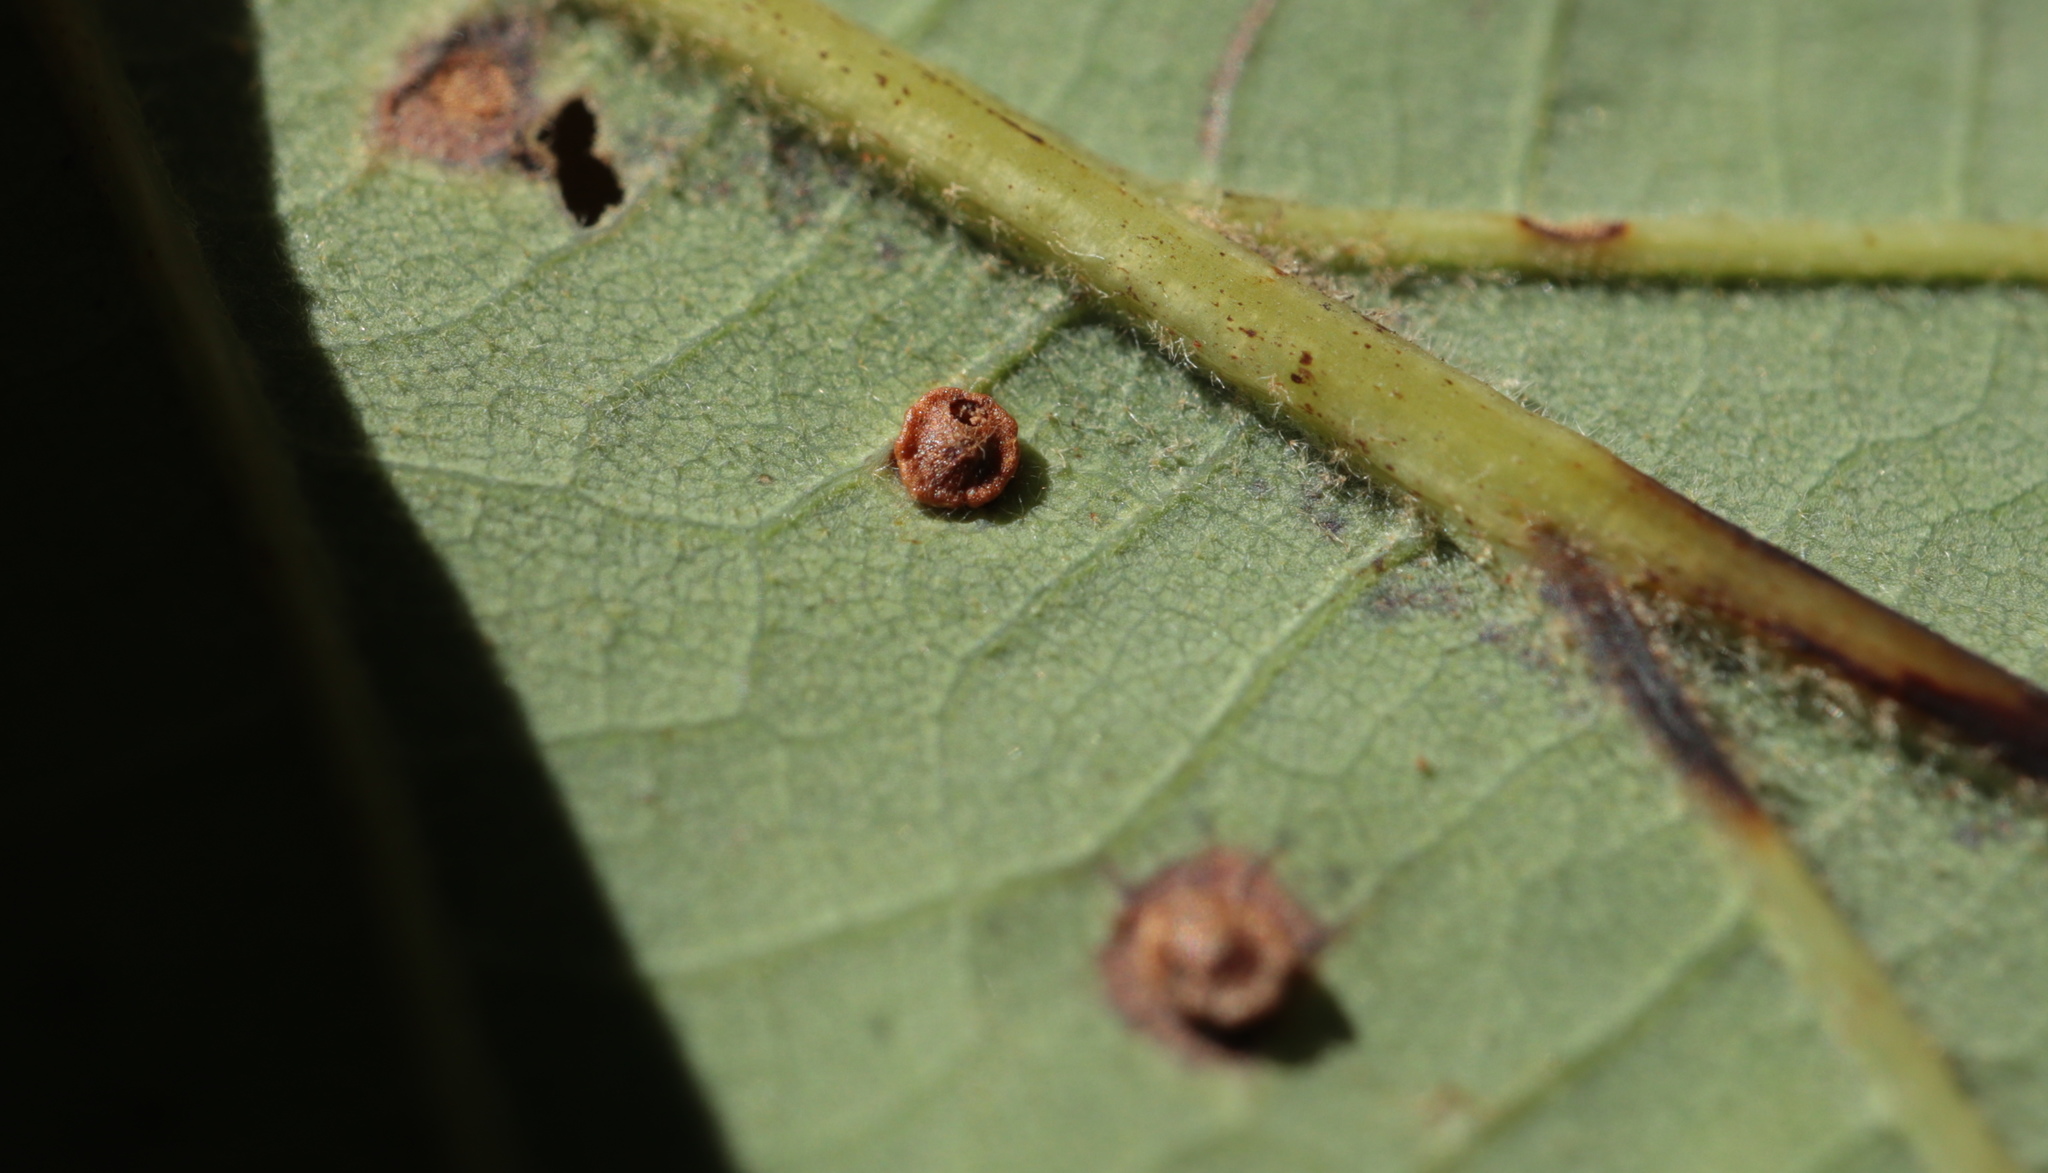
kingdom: Animalia
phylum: Arthropoda
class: Insecta
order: Hymenoptera
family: Cynipidae
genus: Neuroterus
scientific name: Neuroterus
